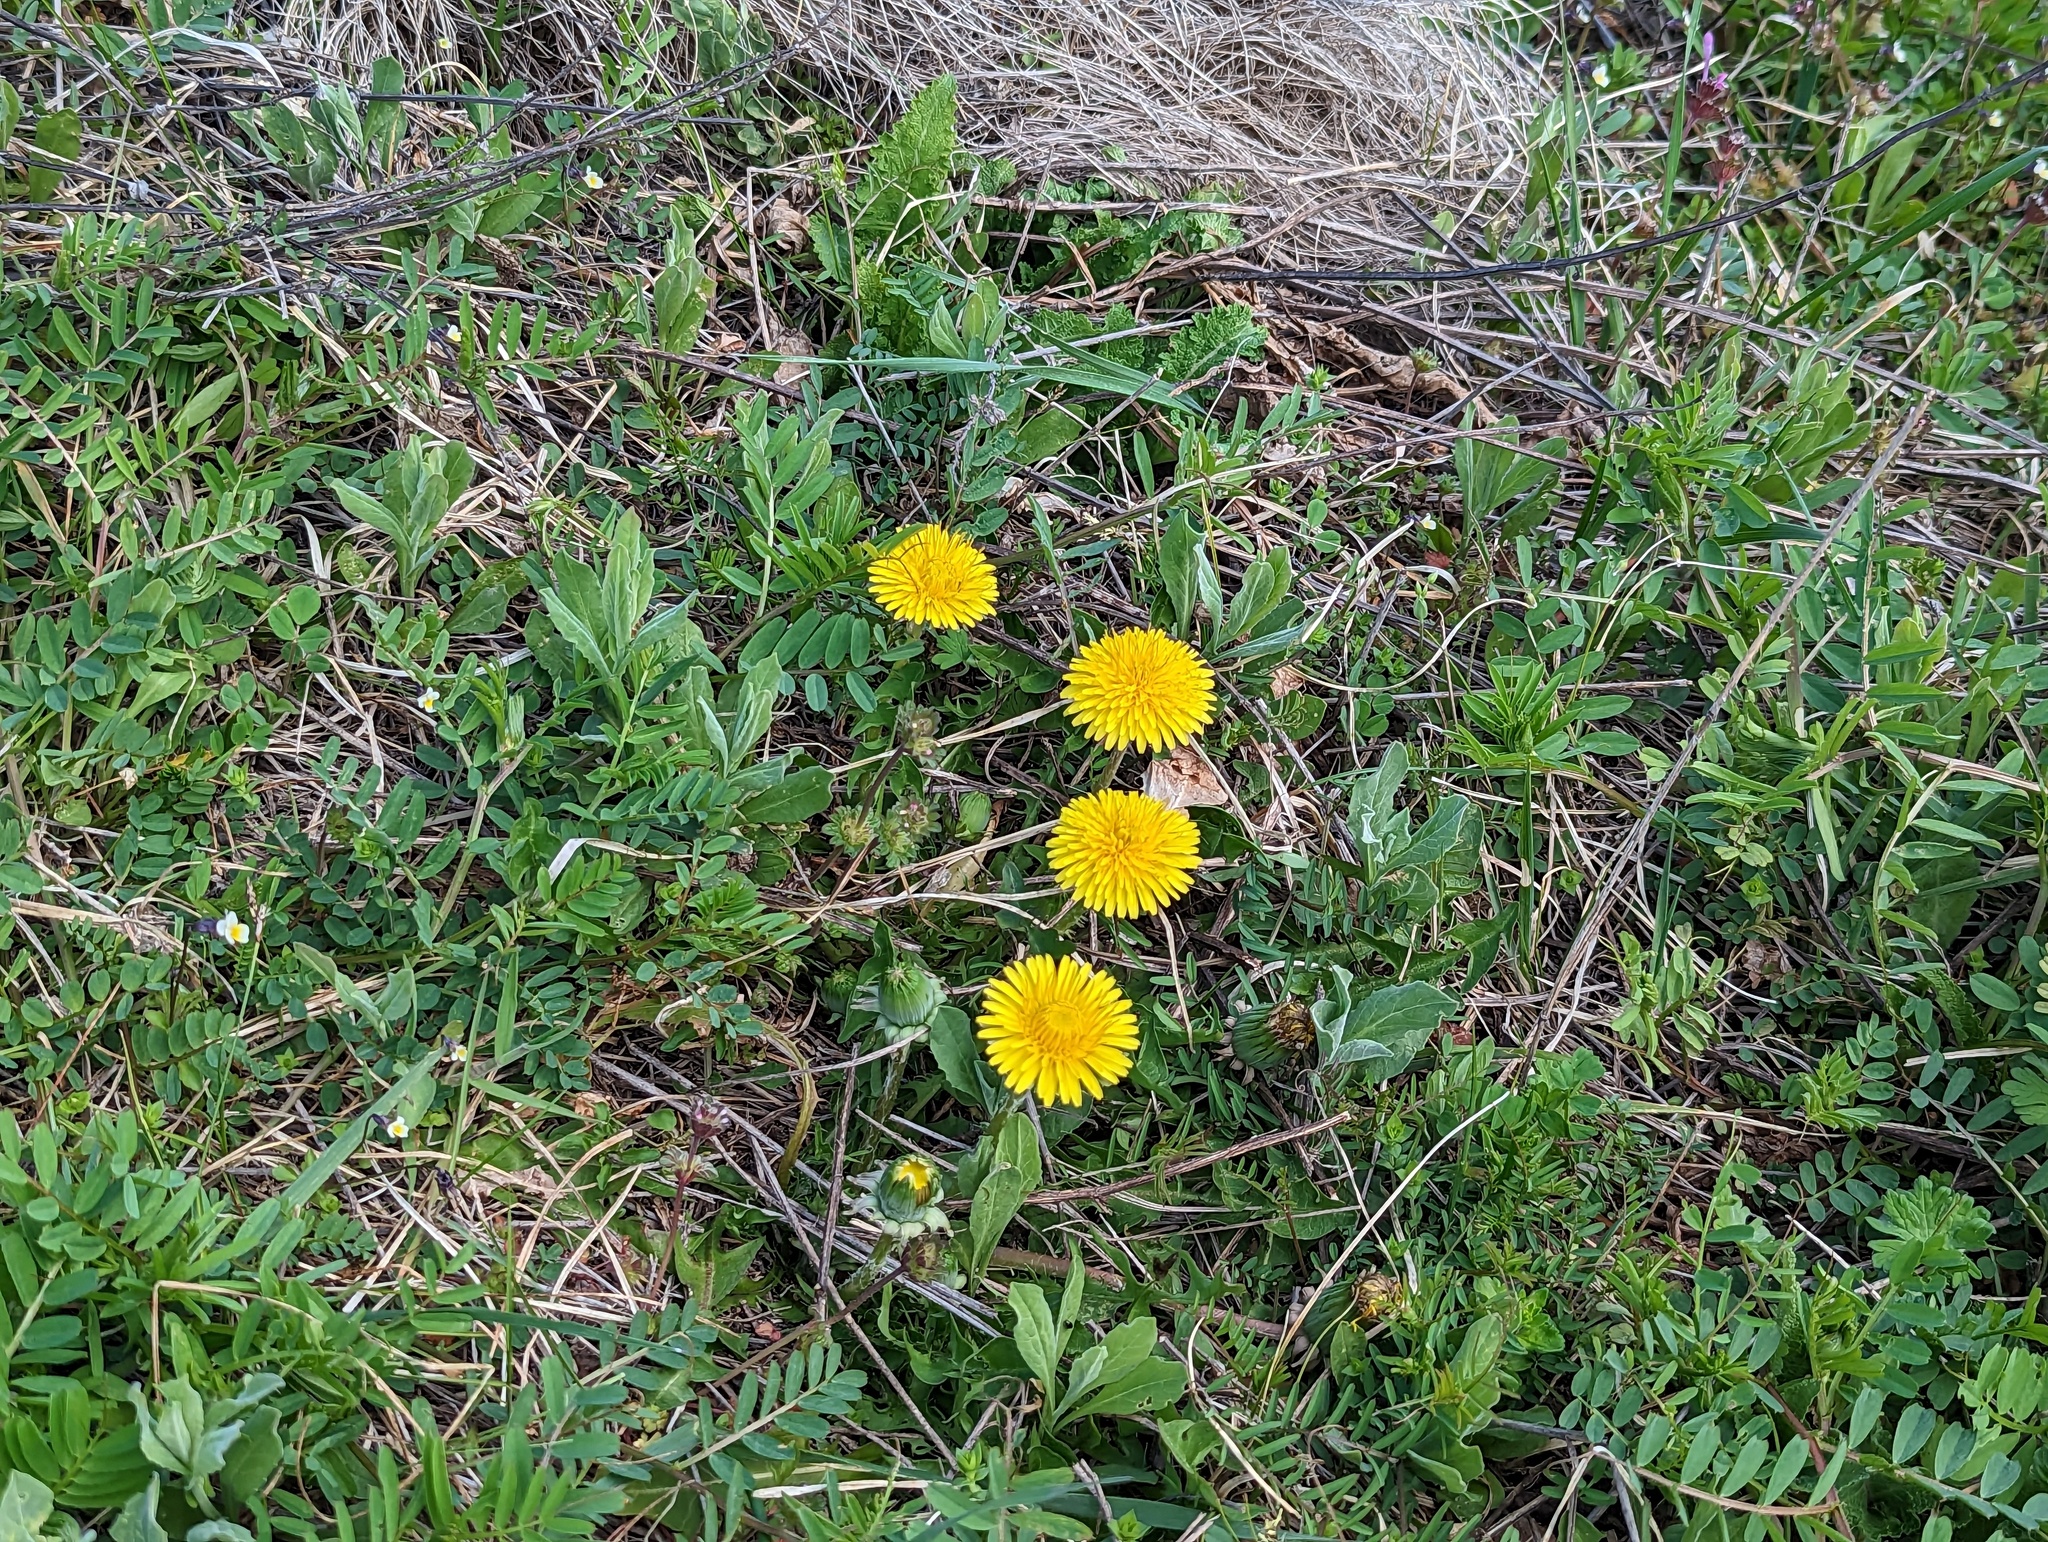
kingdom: Plantae
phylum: Tracheophyta
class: Magnoliopsida
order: Asterales
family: Asteraceae
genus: Taraxacum
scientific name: Taraxacum officinale
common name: Common dandelion
